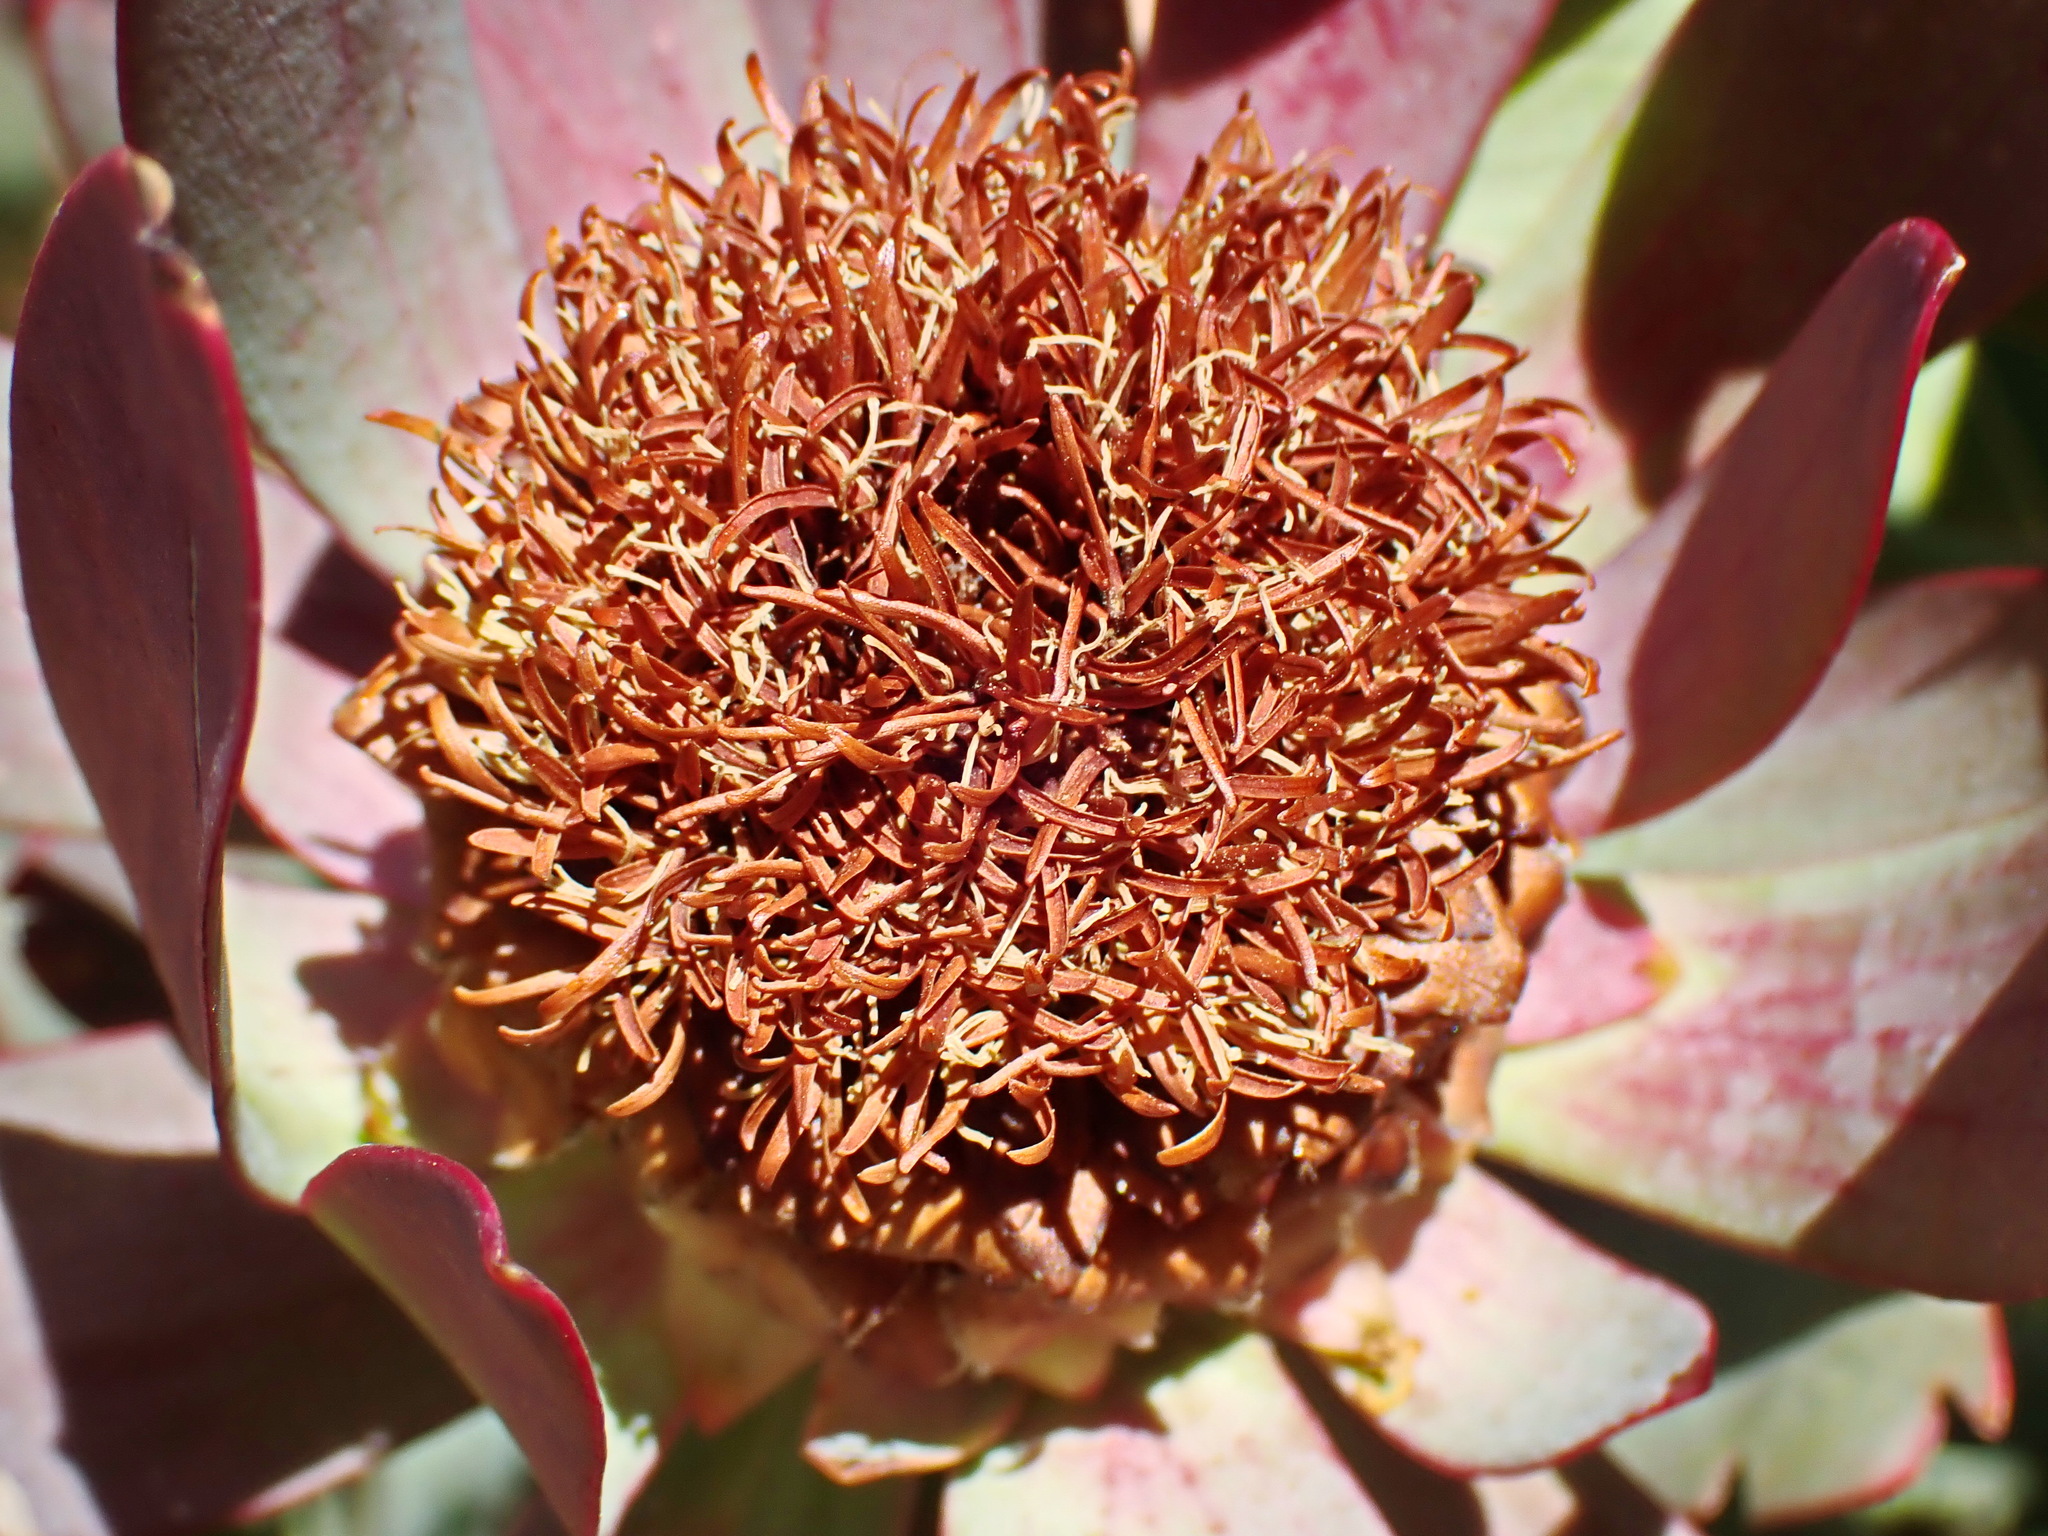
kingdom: Plantae
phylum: Tracheophyta
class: Magnoliopsida
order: Proteales
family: Proteaceae
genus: Leucadendron
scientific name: Leucadendron tinctum
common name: Spicy conebush
